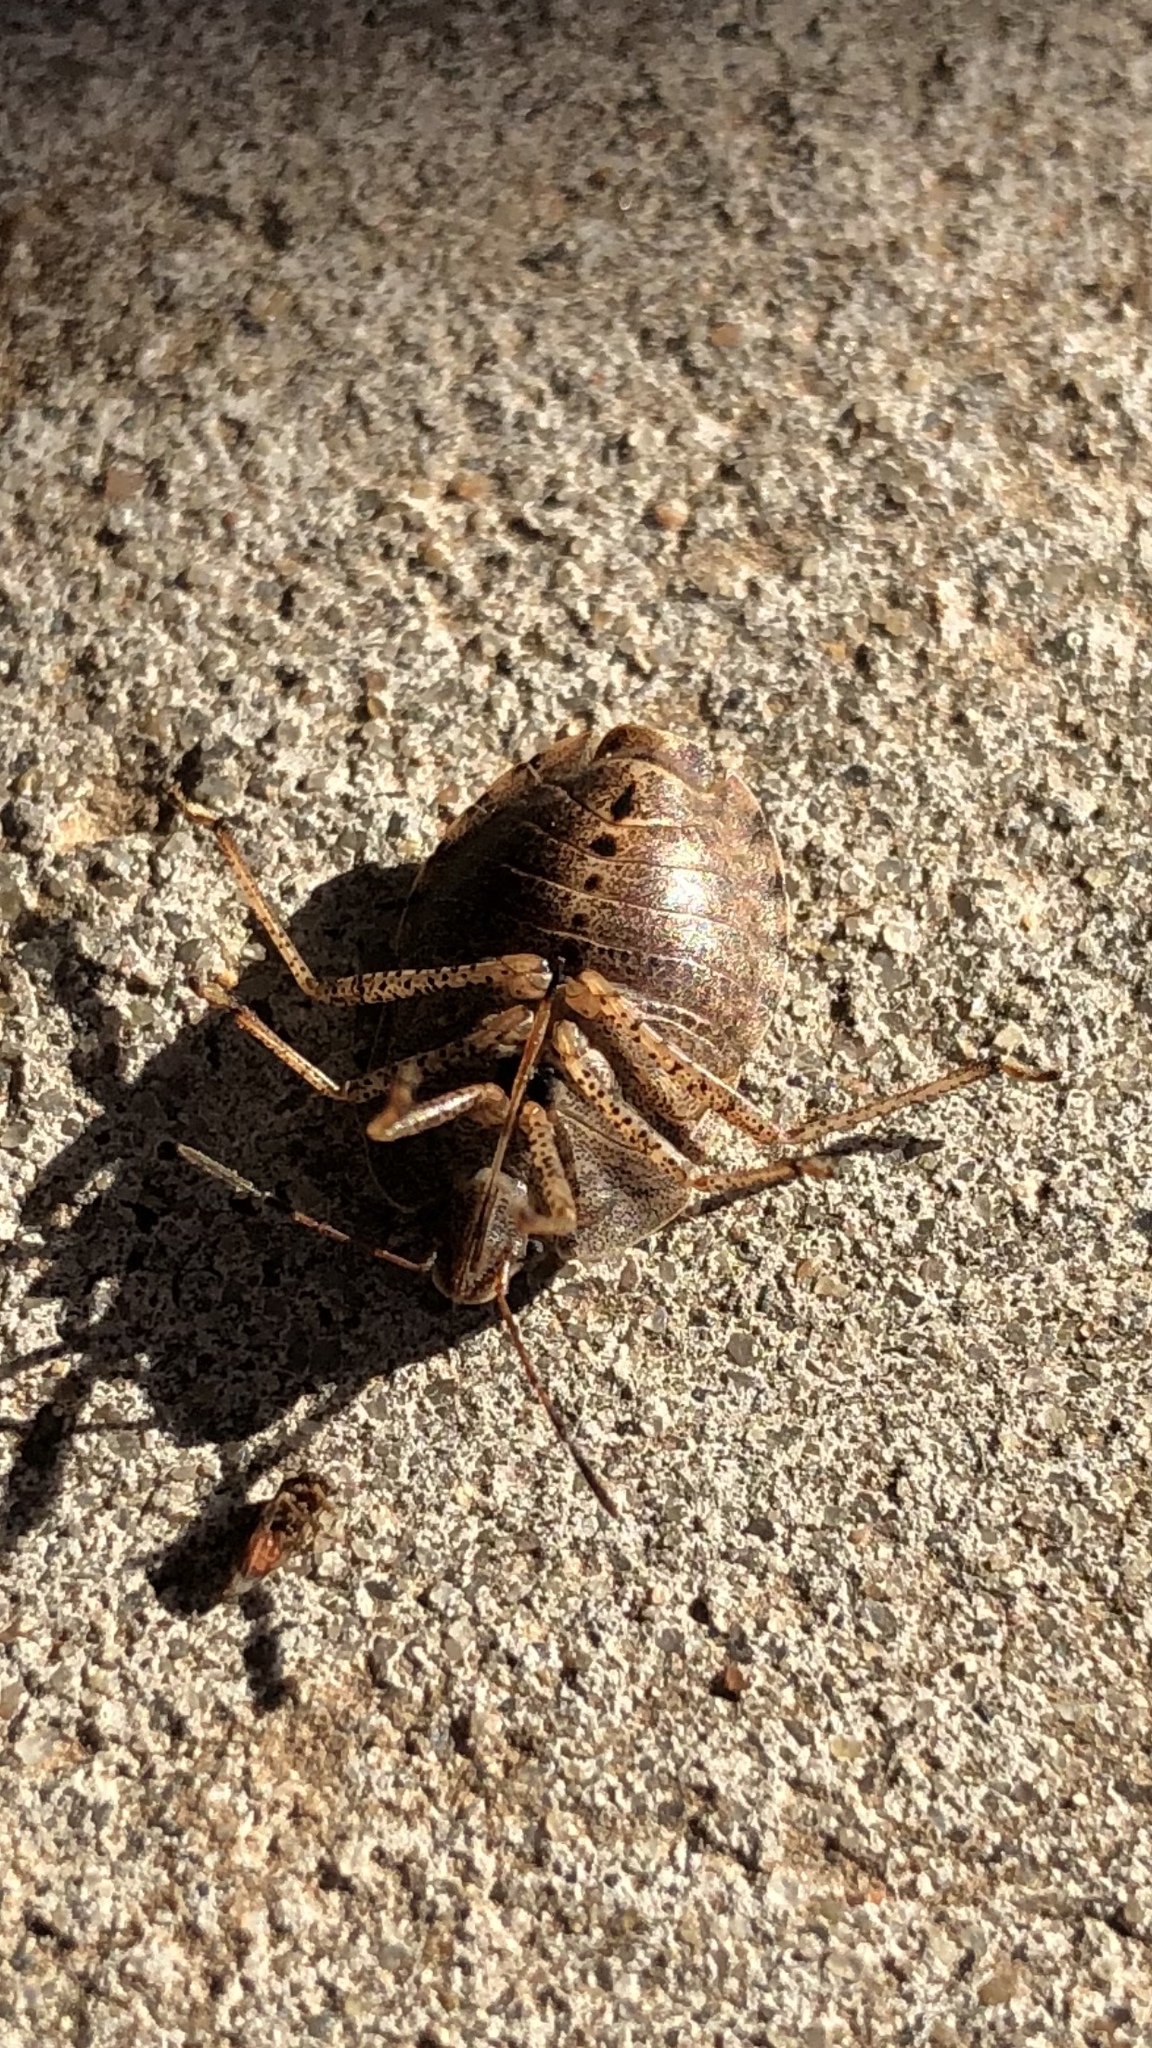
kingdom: Animalia
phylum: Arthropoda
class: Insecta
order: Hemiptera
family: Pentatomidae
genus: Menecles
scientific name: Menecles insertus
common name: Elf shoe stink bug
